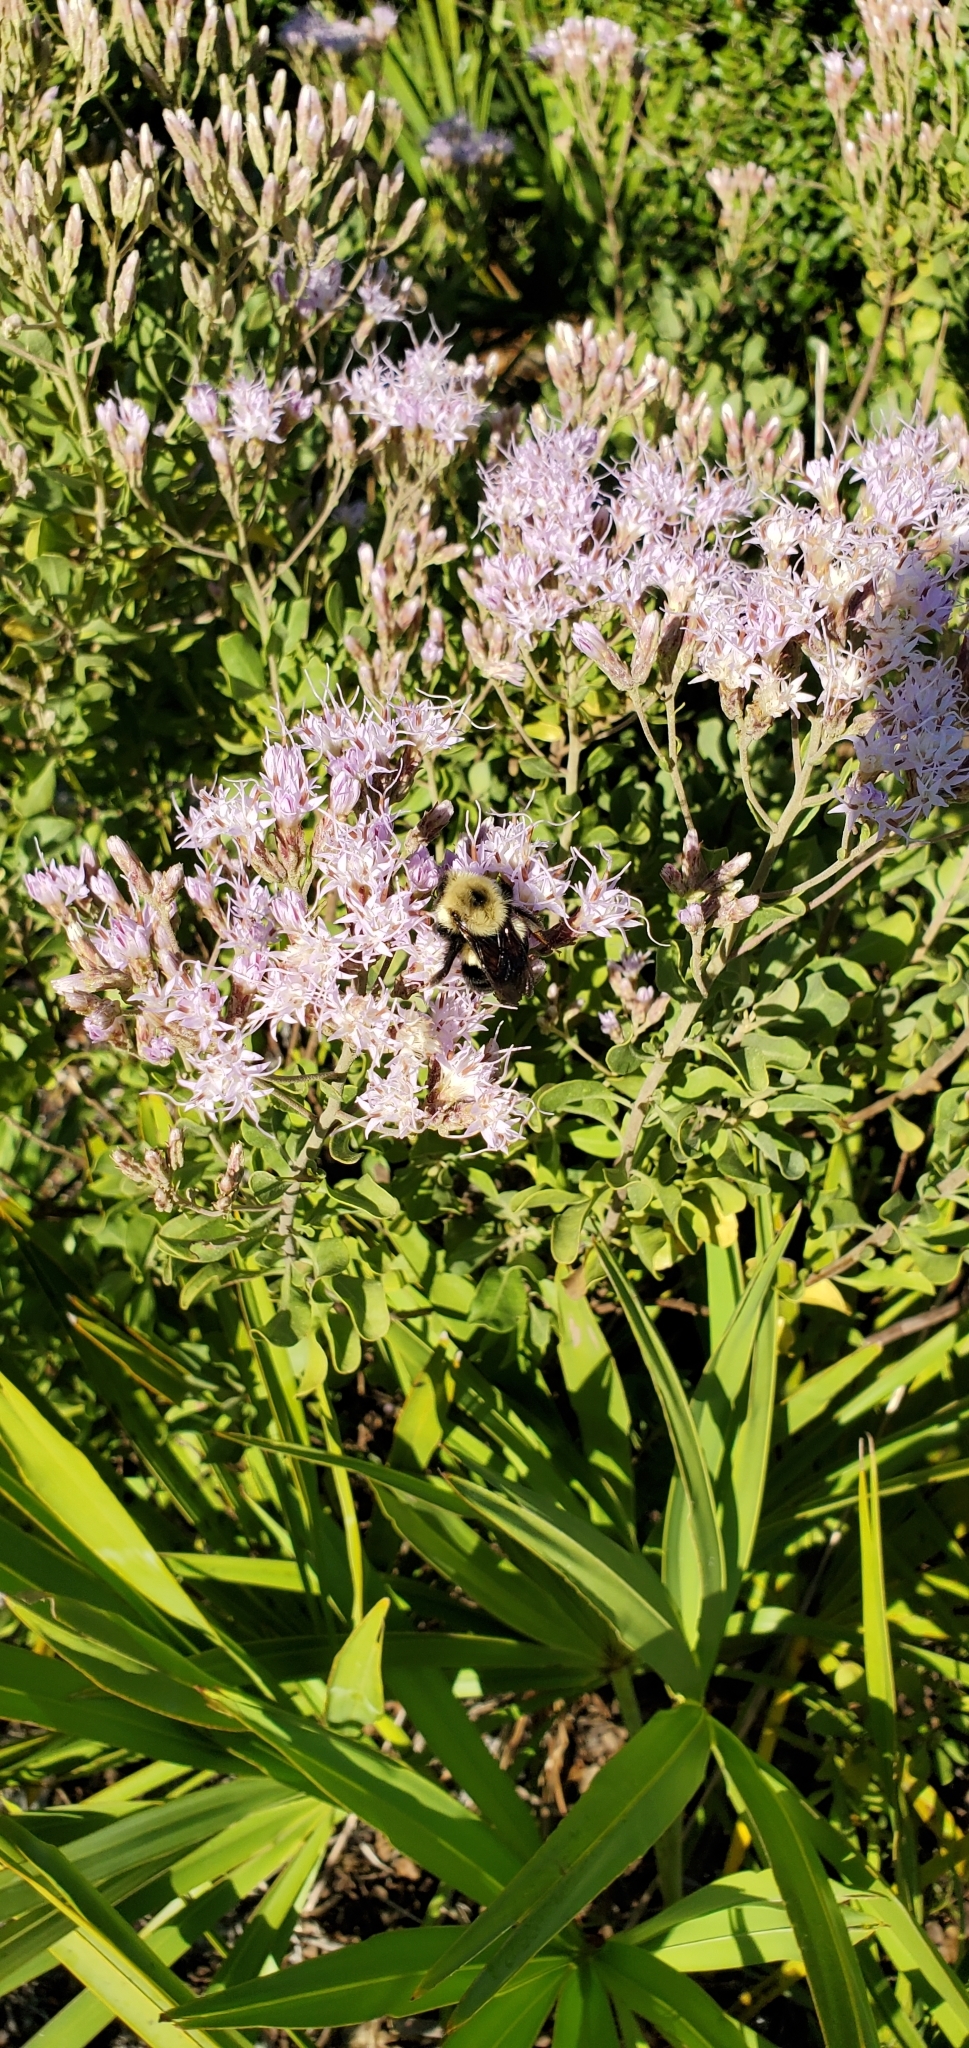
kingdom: Plantae
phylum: Tracheophyta
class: Magnoliopsida
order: Asterales
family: Asteraceae
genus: Garberia
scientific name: Garberia heterophylla
